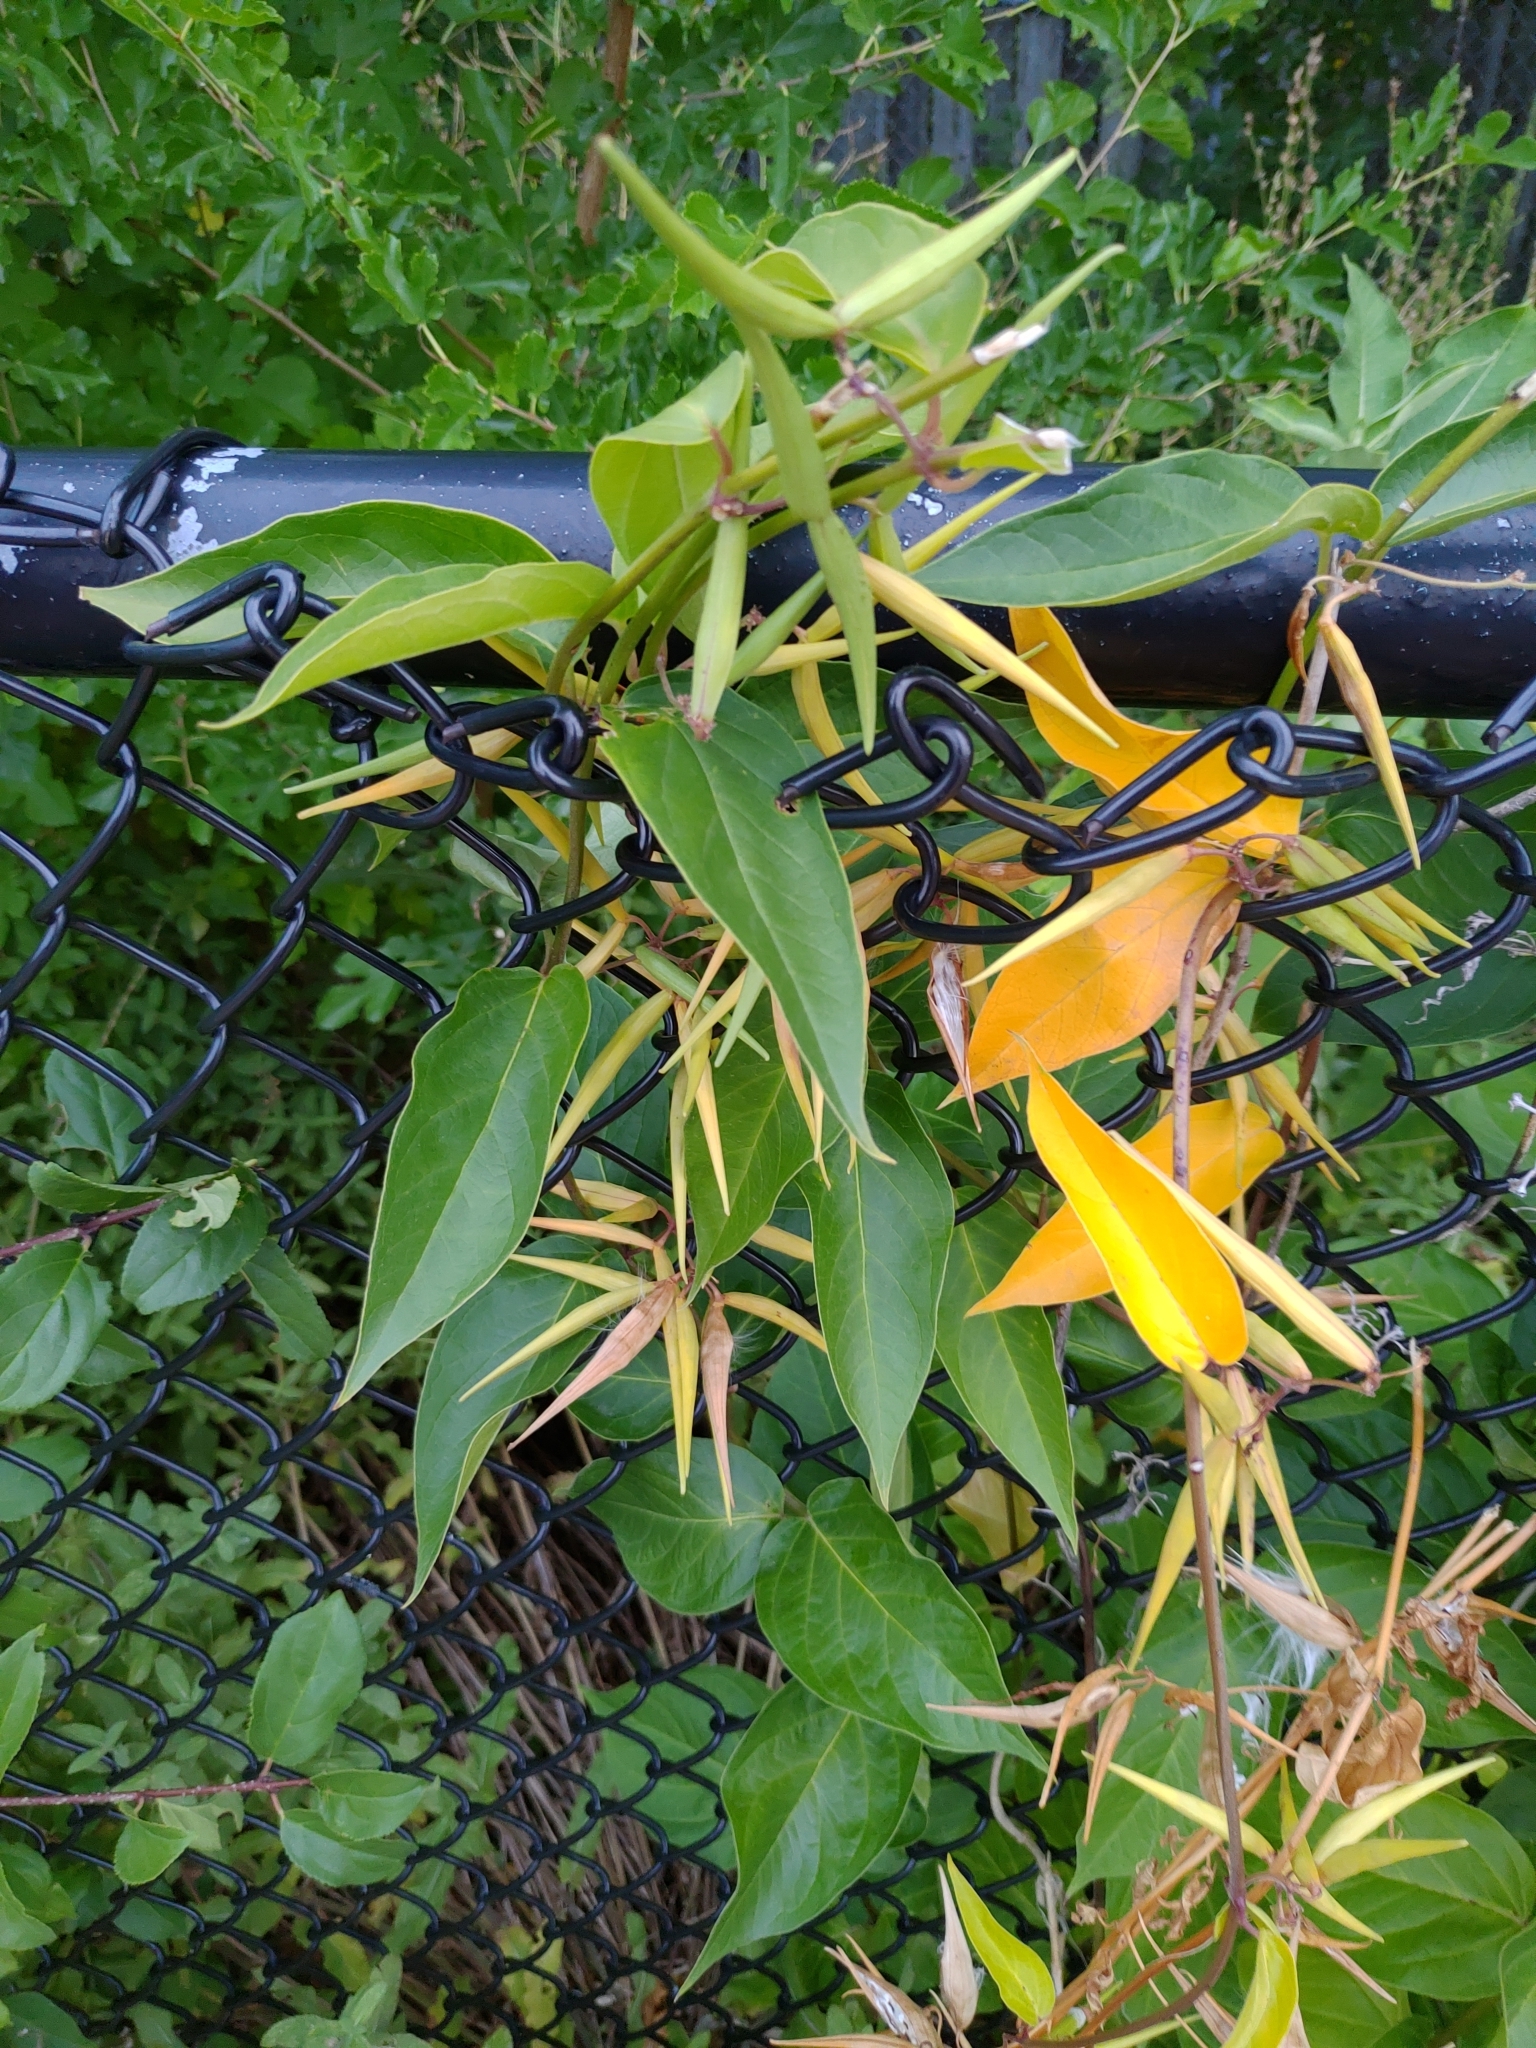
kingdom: Plantae
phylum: Tracheophyta
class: Magnoliopsida
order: Gentianales
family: Apocynaceae
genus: Vincetoxicum
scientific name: Vincetoxicum rossicum
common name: Dog-strangling vine
